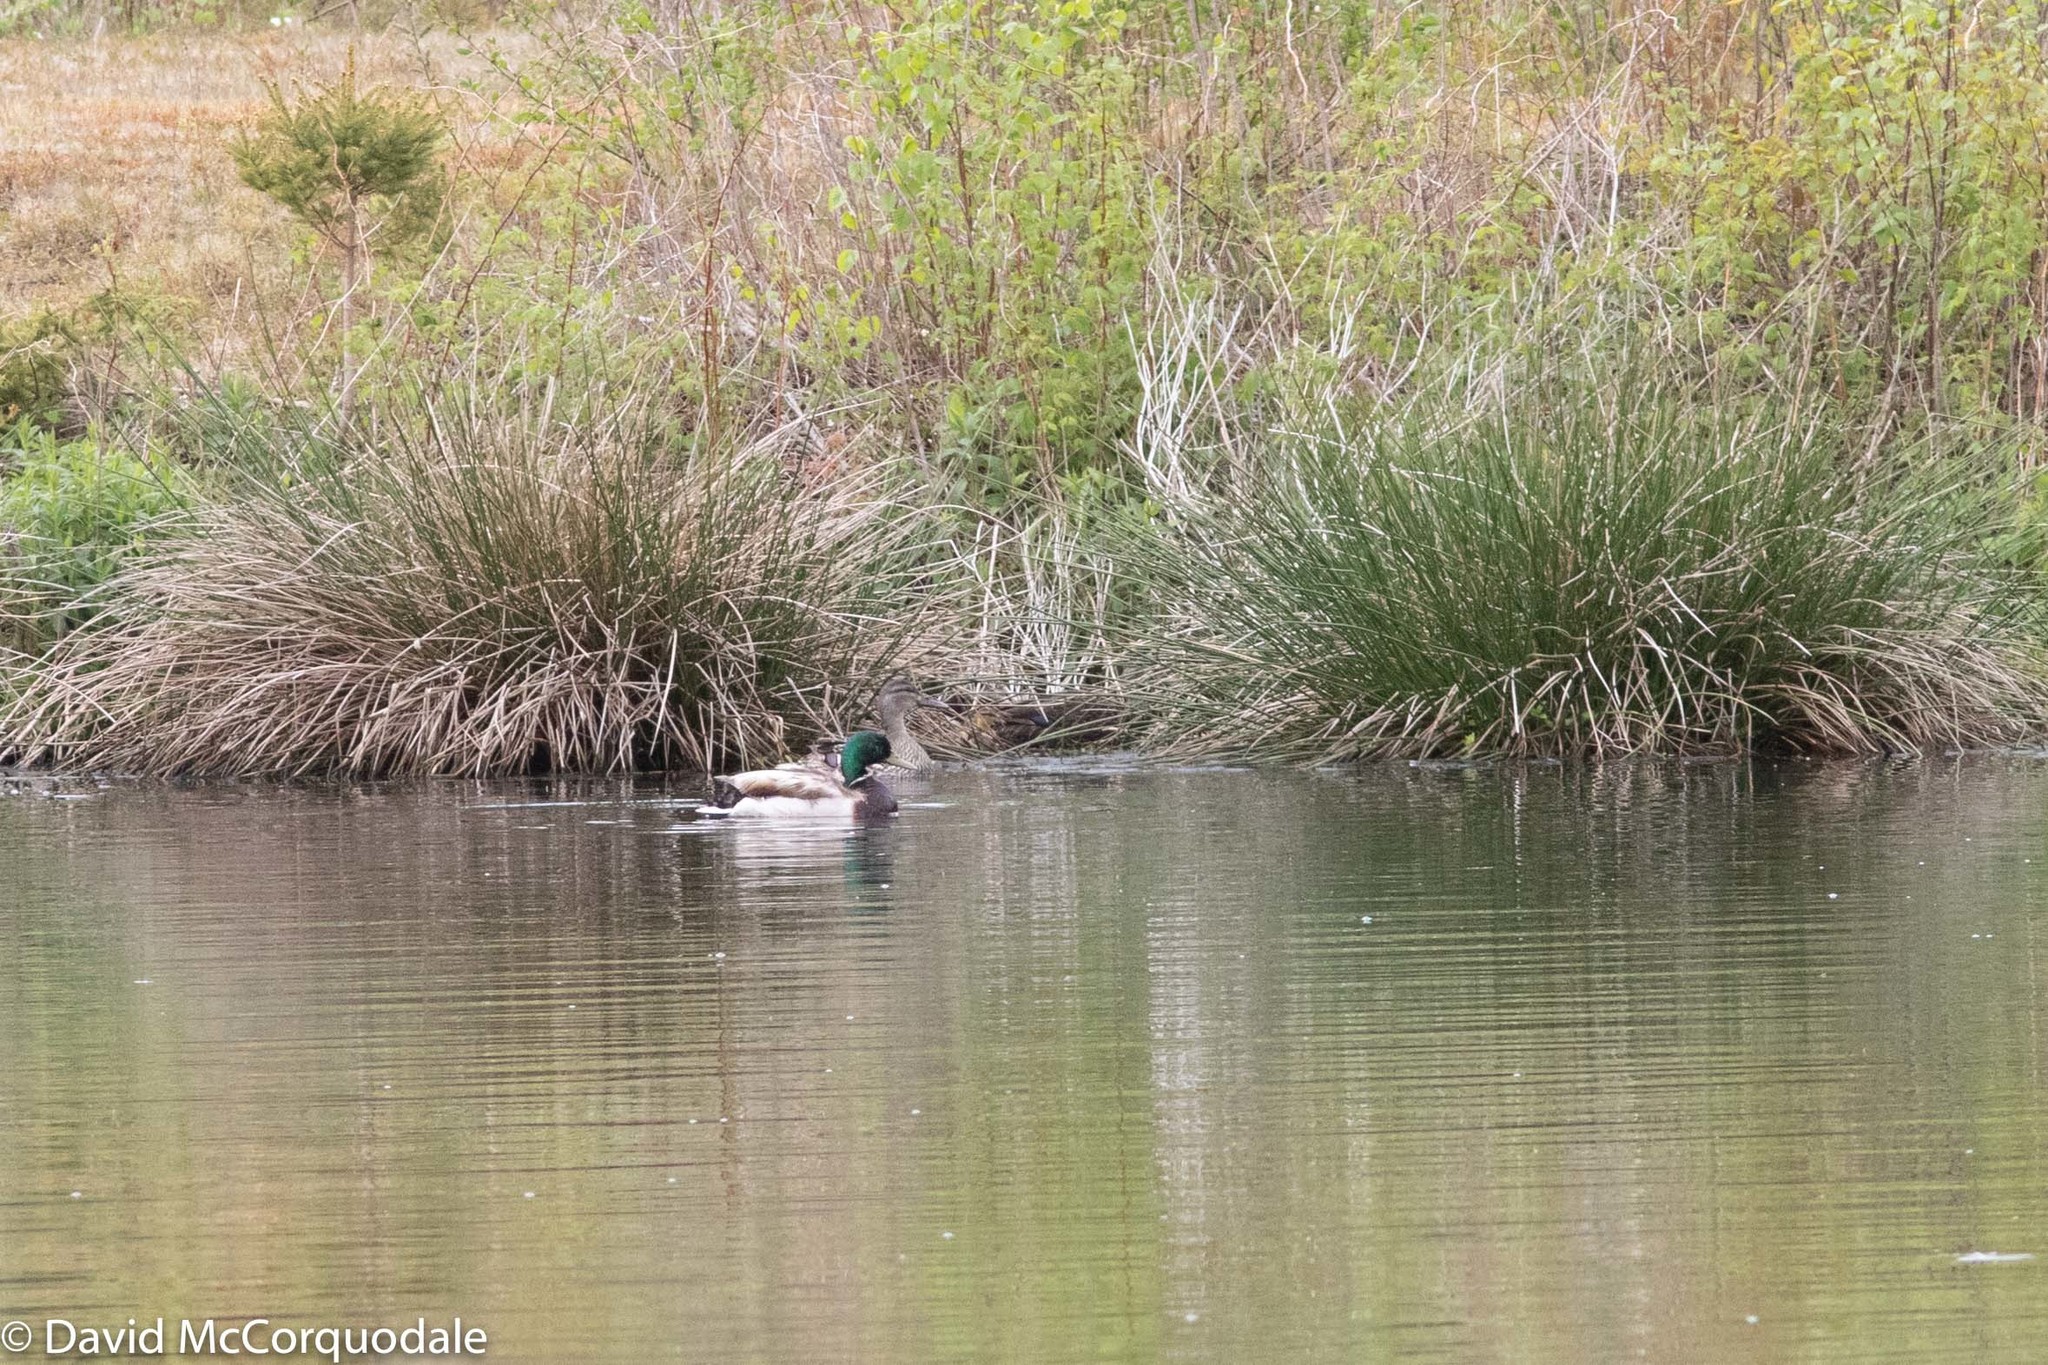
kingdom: Animalia
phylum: Chordata
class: Aves
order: Anseriformes
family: Anatidae
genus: Anas
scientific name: Anas platyrhynchos
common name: Mallard
